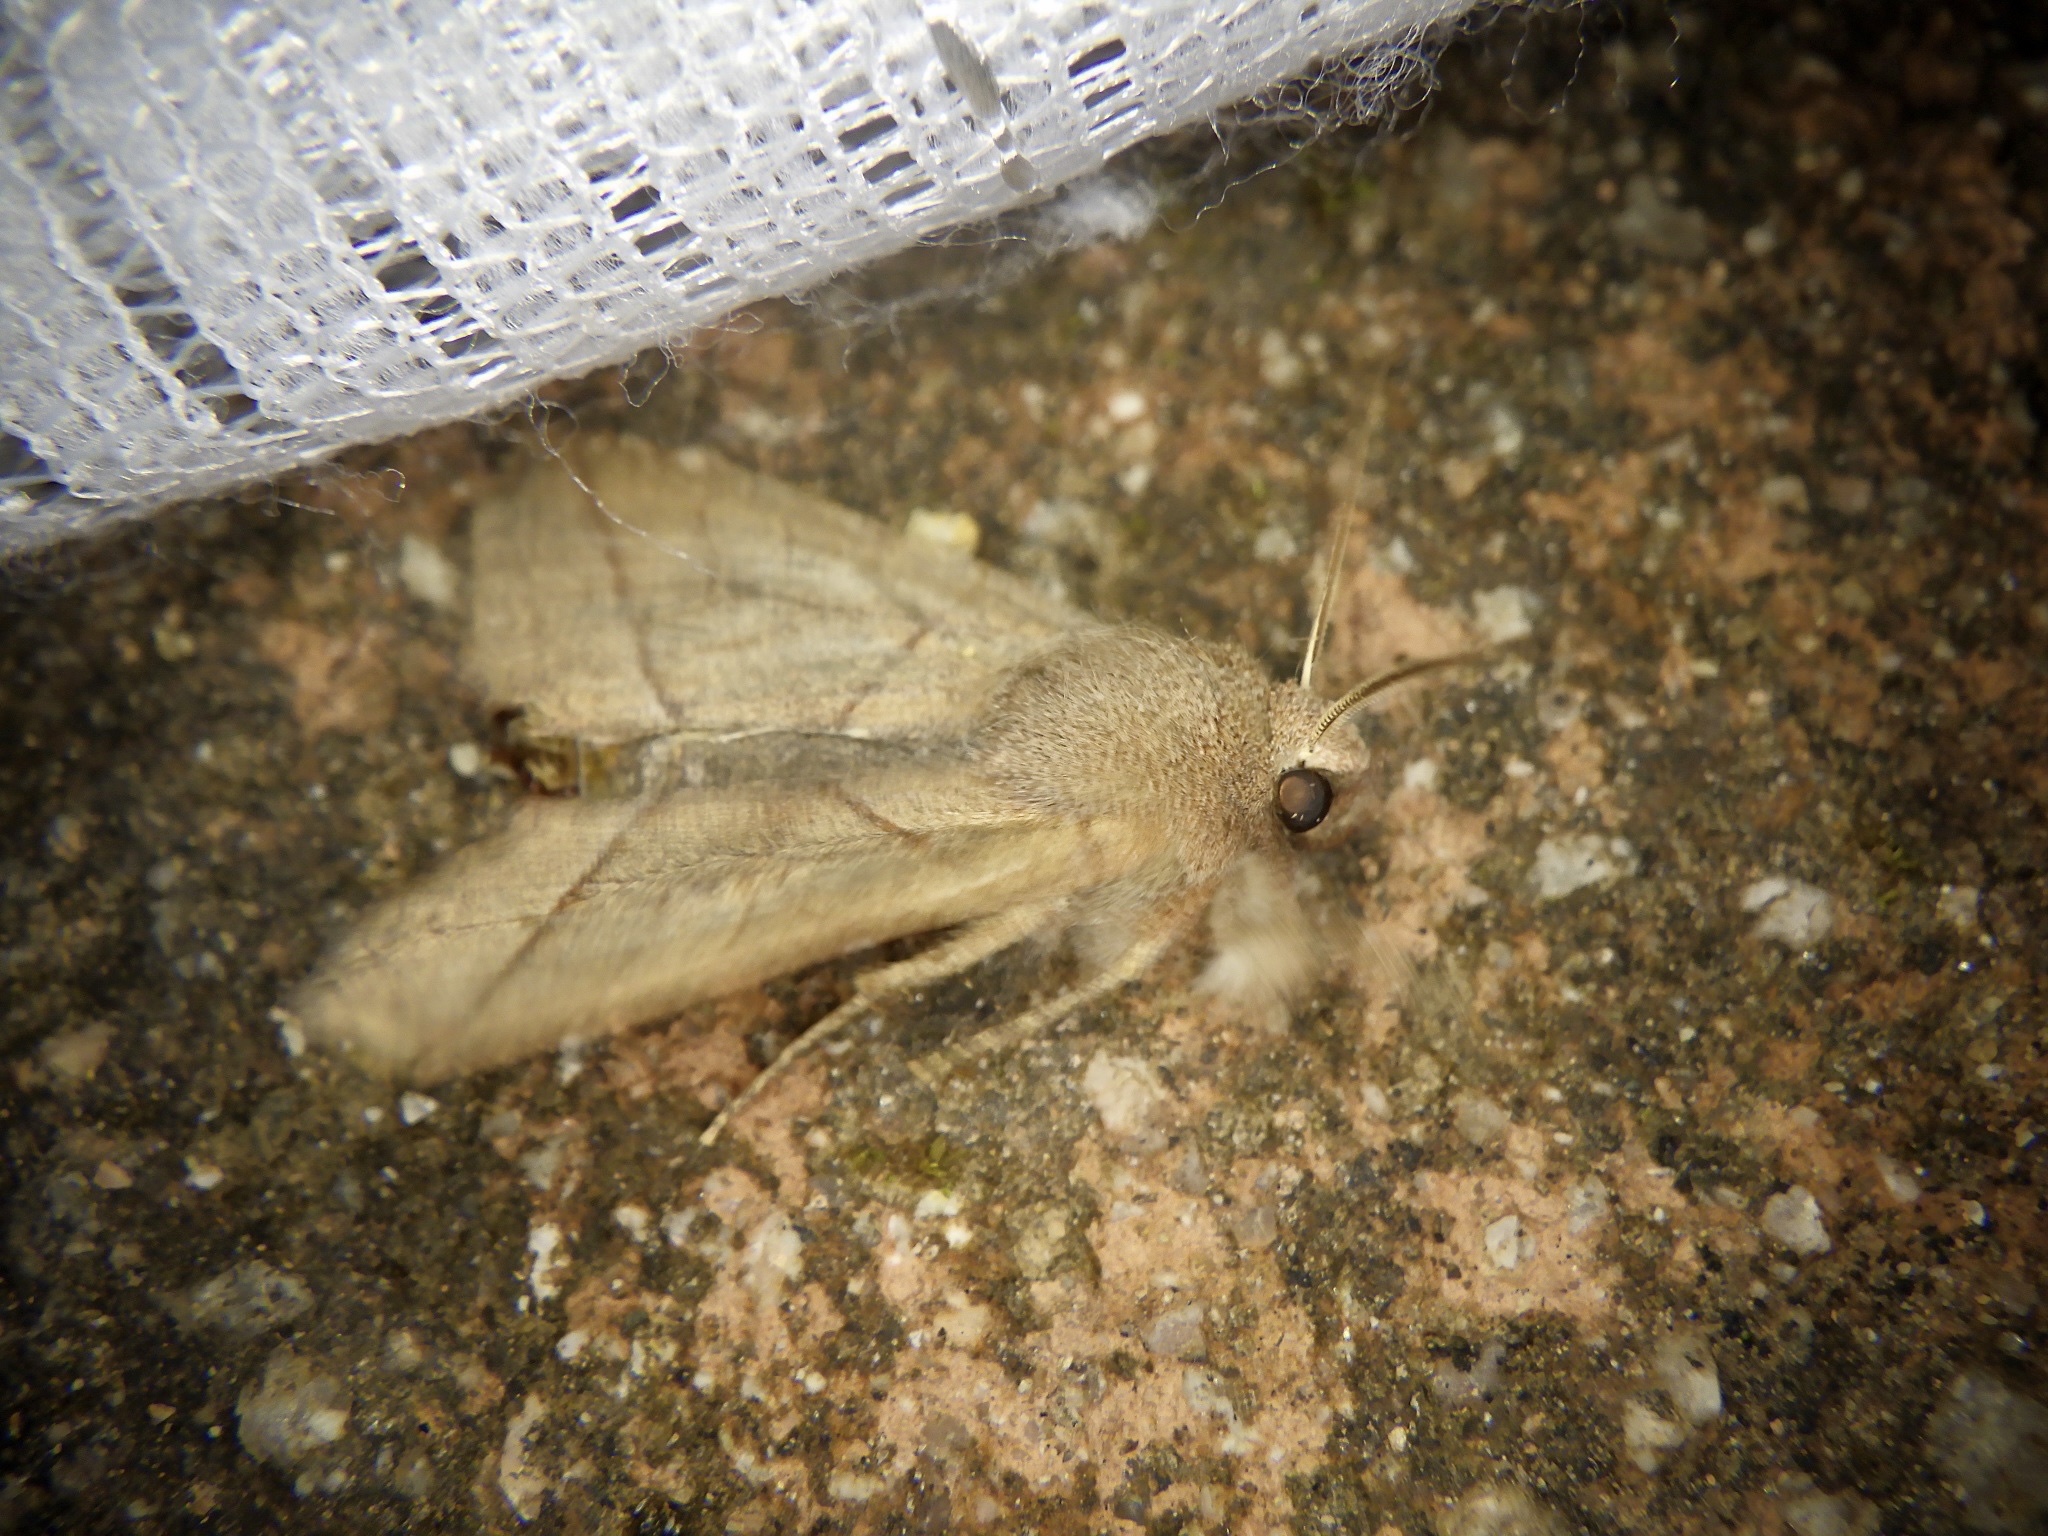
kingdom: Animalia
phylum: Arthropoda
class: Insecta
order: Lepidoptera
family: Noctuidae
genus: Telorta
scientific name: Telorta divergens
